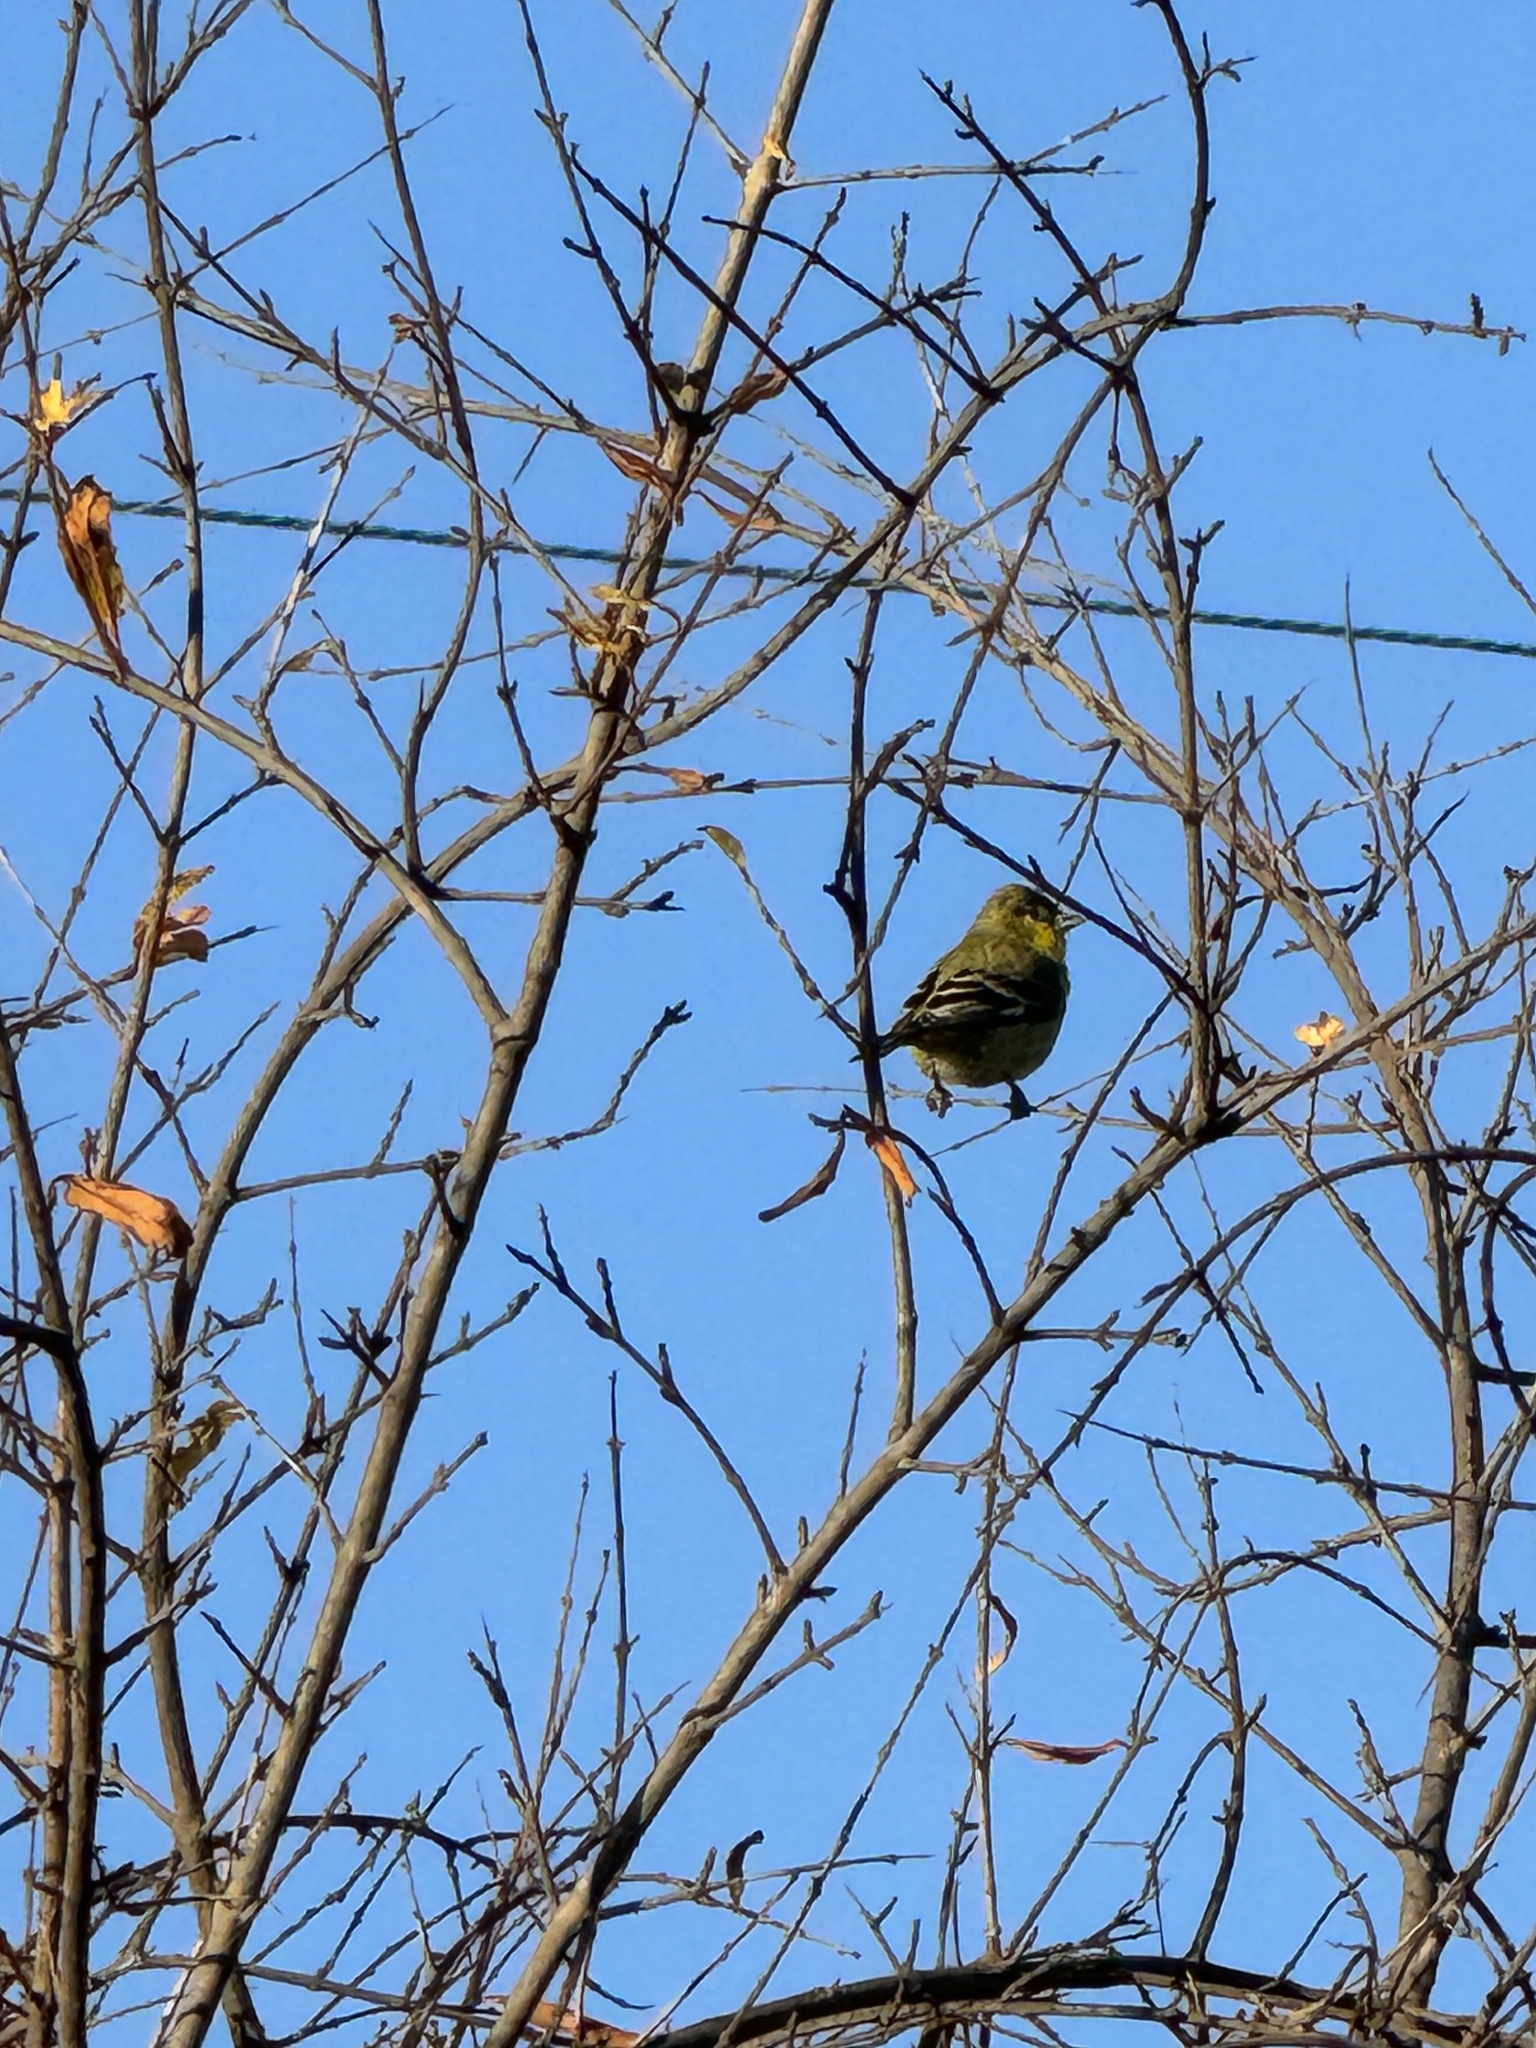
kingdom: Animalia
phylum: Chordata
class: Aves
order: Passeriformes
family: Fringillidae
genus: Spinus
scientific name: Spinus psaltria
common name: Lesser goldfinch
